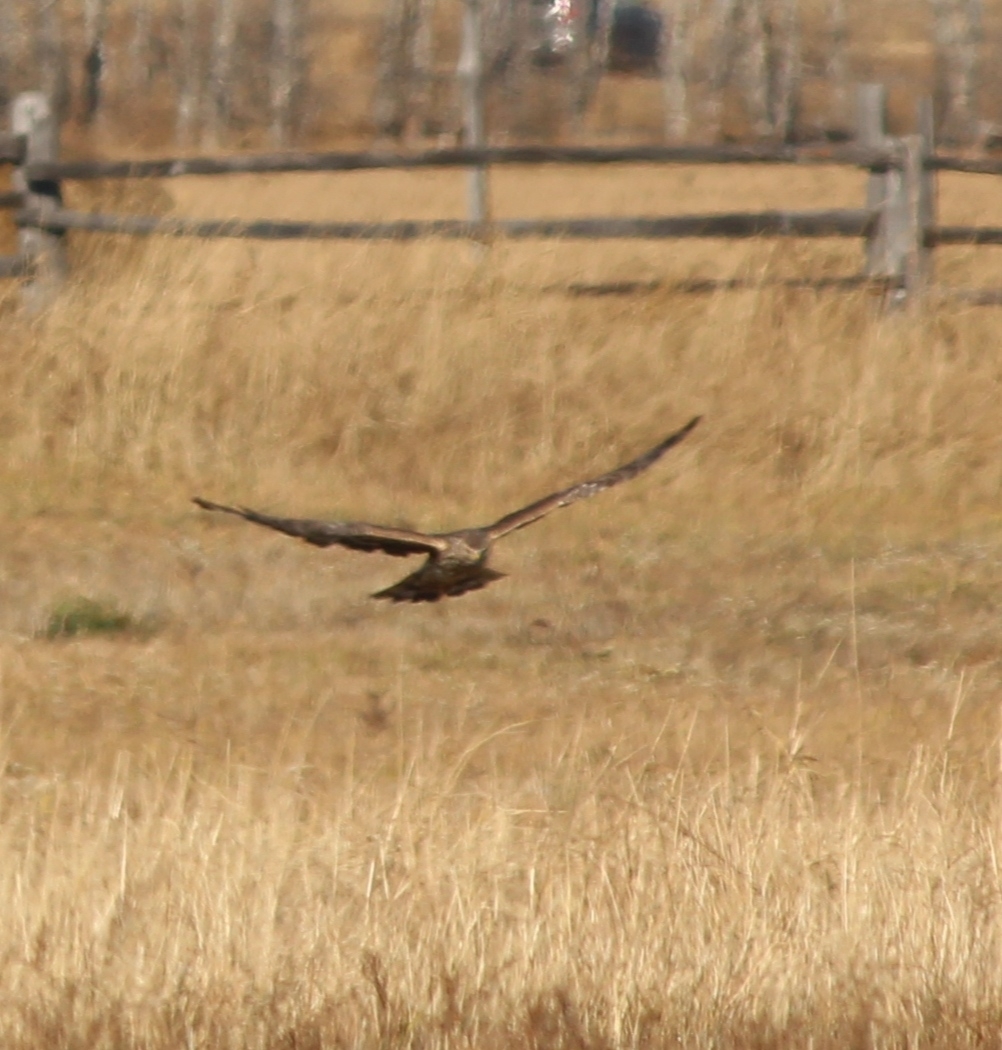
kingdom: Animalia
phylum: Chordata
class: Aves
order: Accipitriformes
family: Accipitridae
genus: Circus
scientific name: Circus cyaneus
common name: Hen harrier
